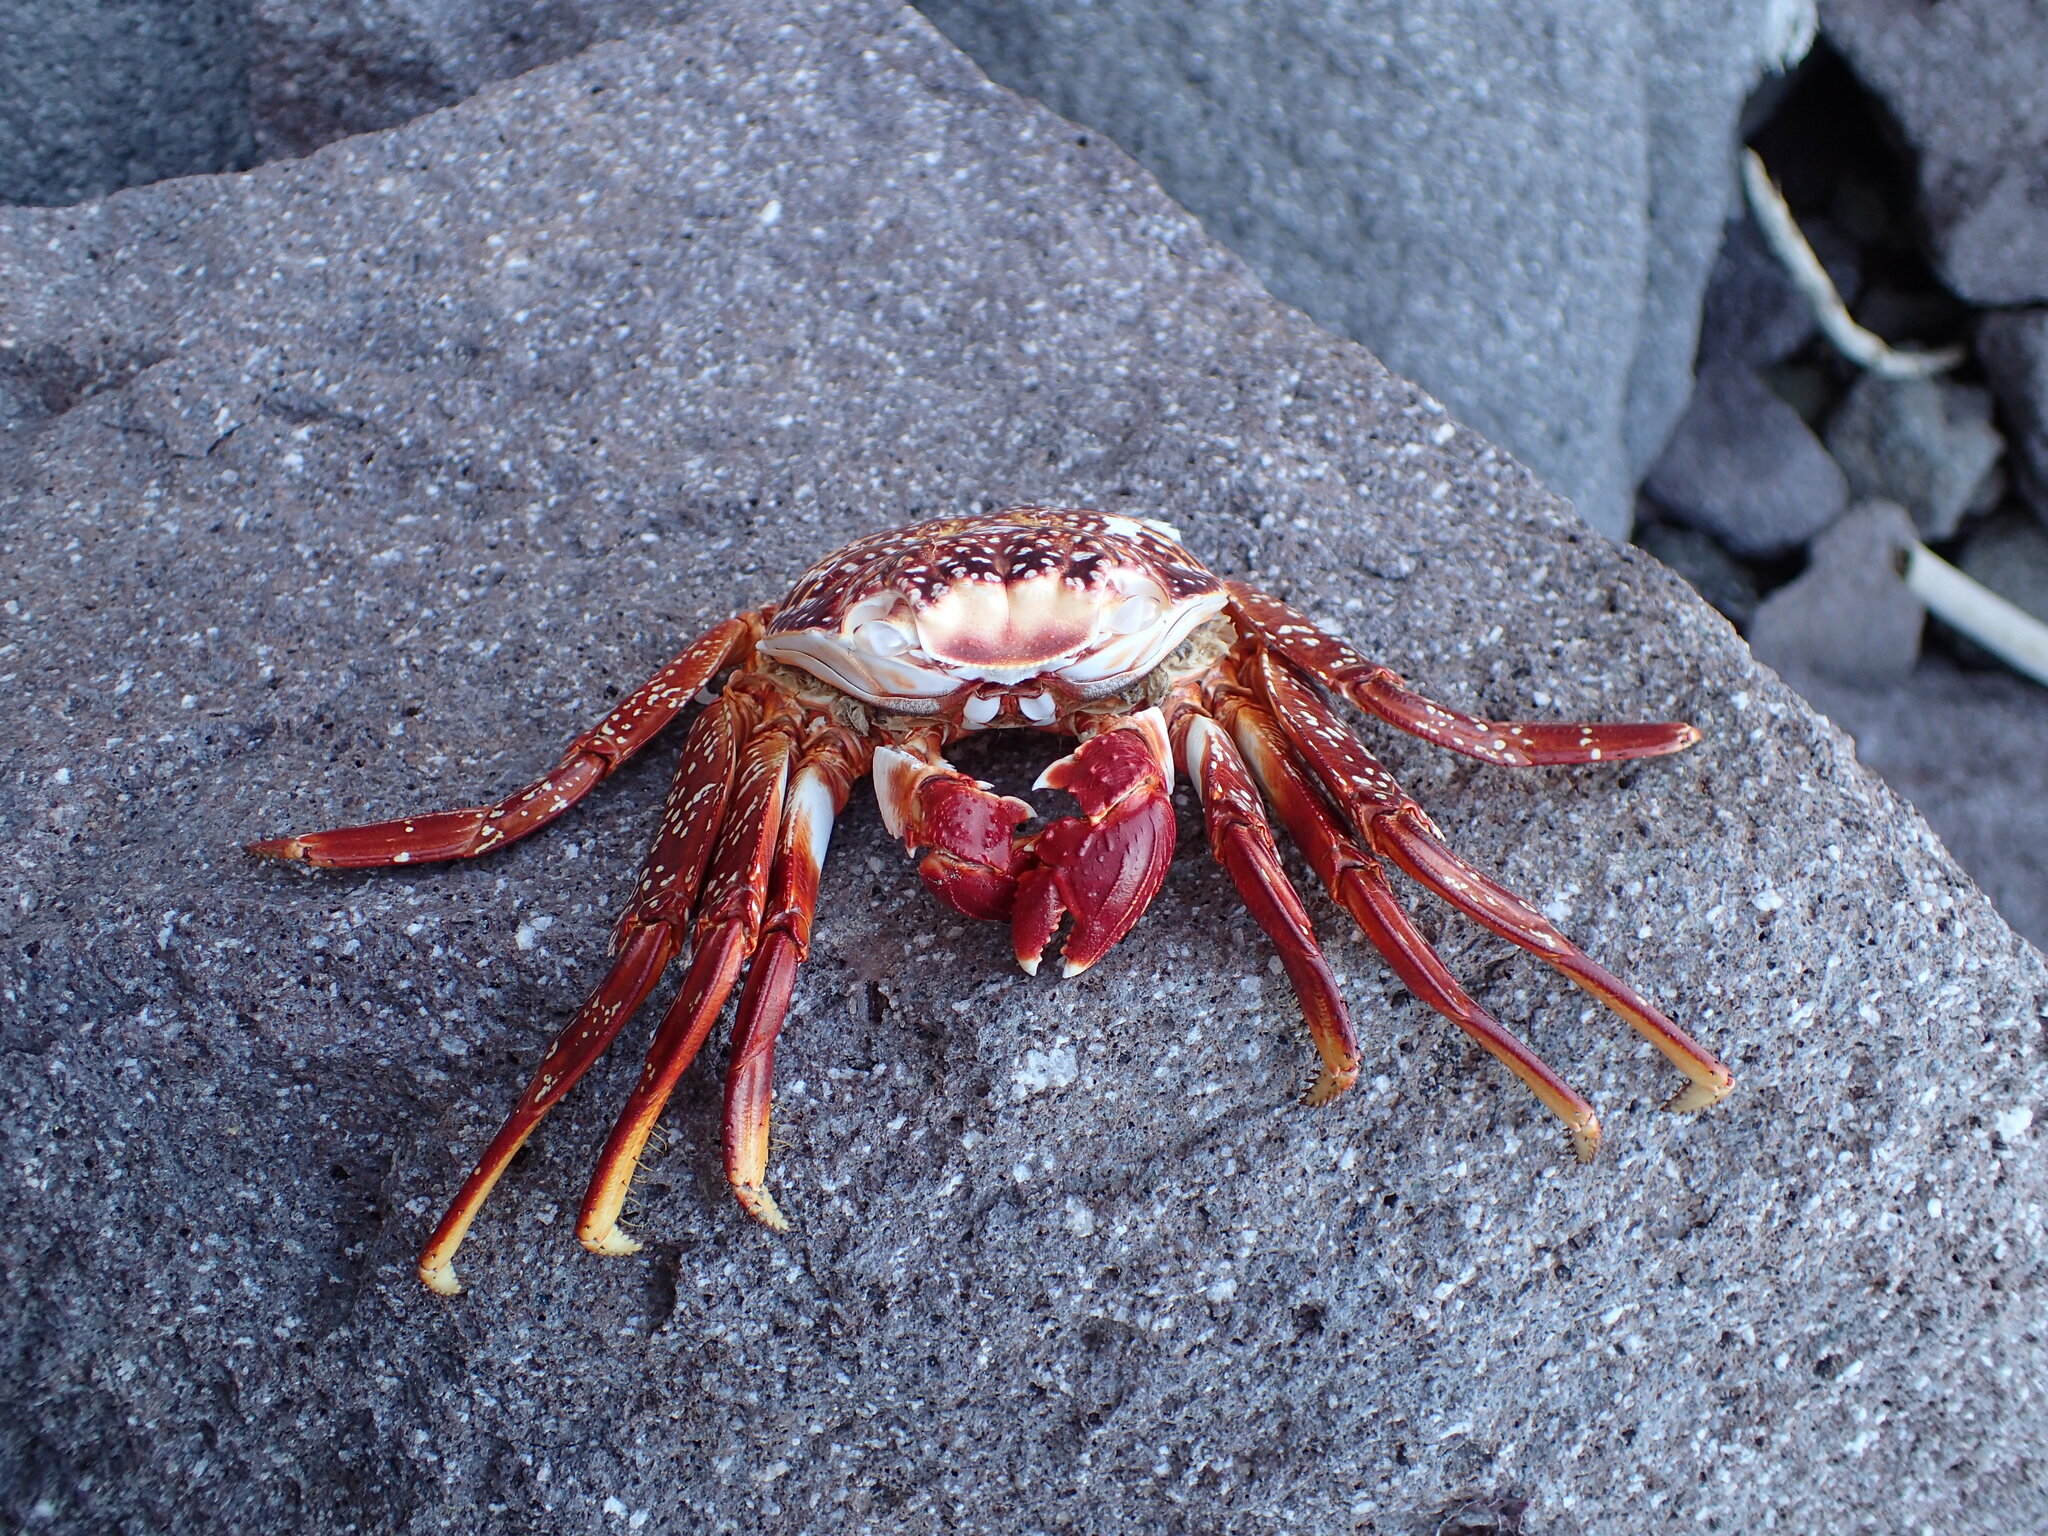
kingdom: Animalia
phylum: Arthropoda
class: Malacostraca
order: Decapoda
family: Grapsidae
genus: Grapsus
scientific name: Grapsus grapsus
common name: Sally lightfoot
